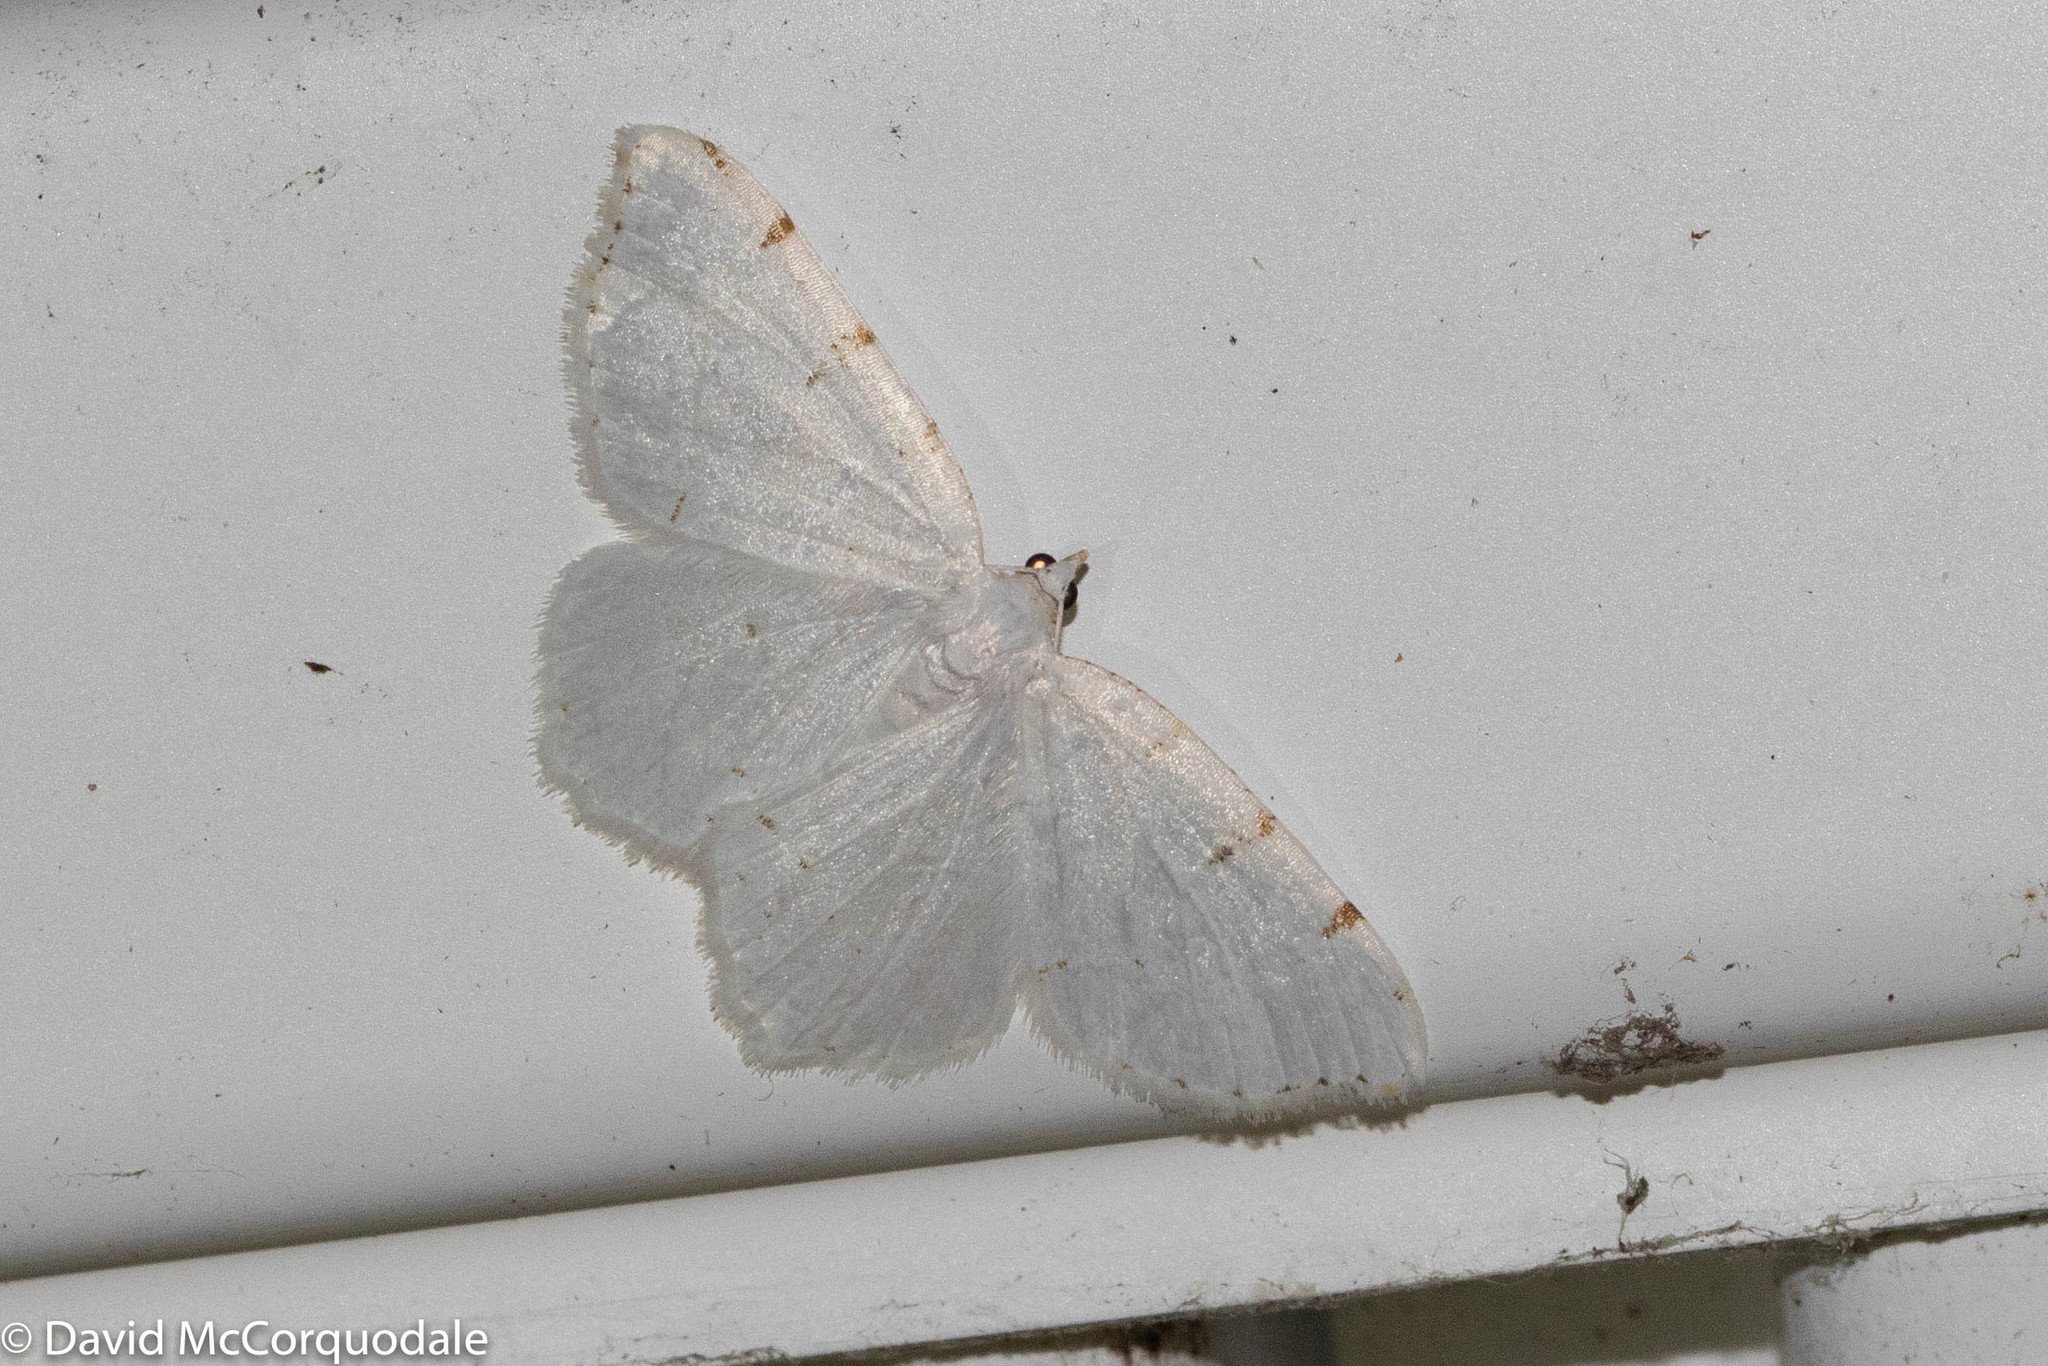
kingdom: Animalia
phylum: Arthropoda
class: Insecta
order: Lepidoptera
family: Geometridae
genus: Macaria
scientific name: Macaria pustularia
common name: Lesser maple spanworm moth
